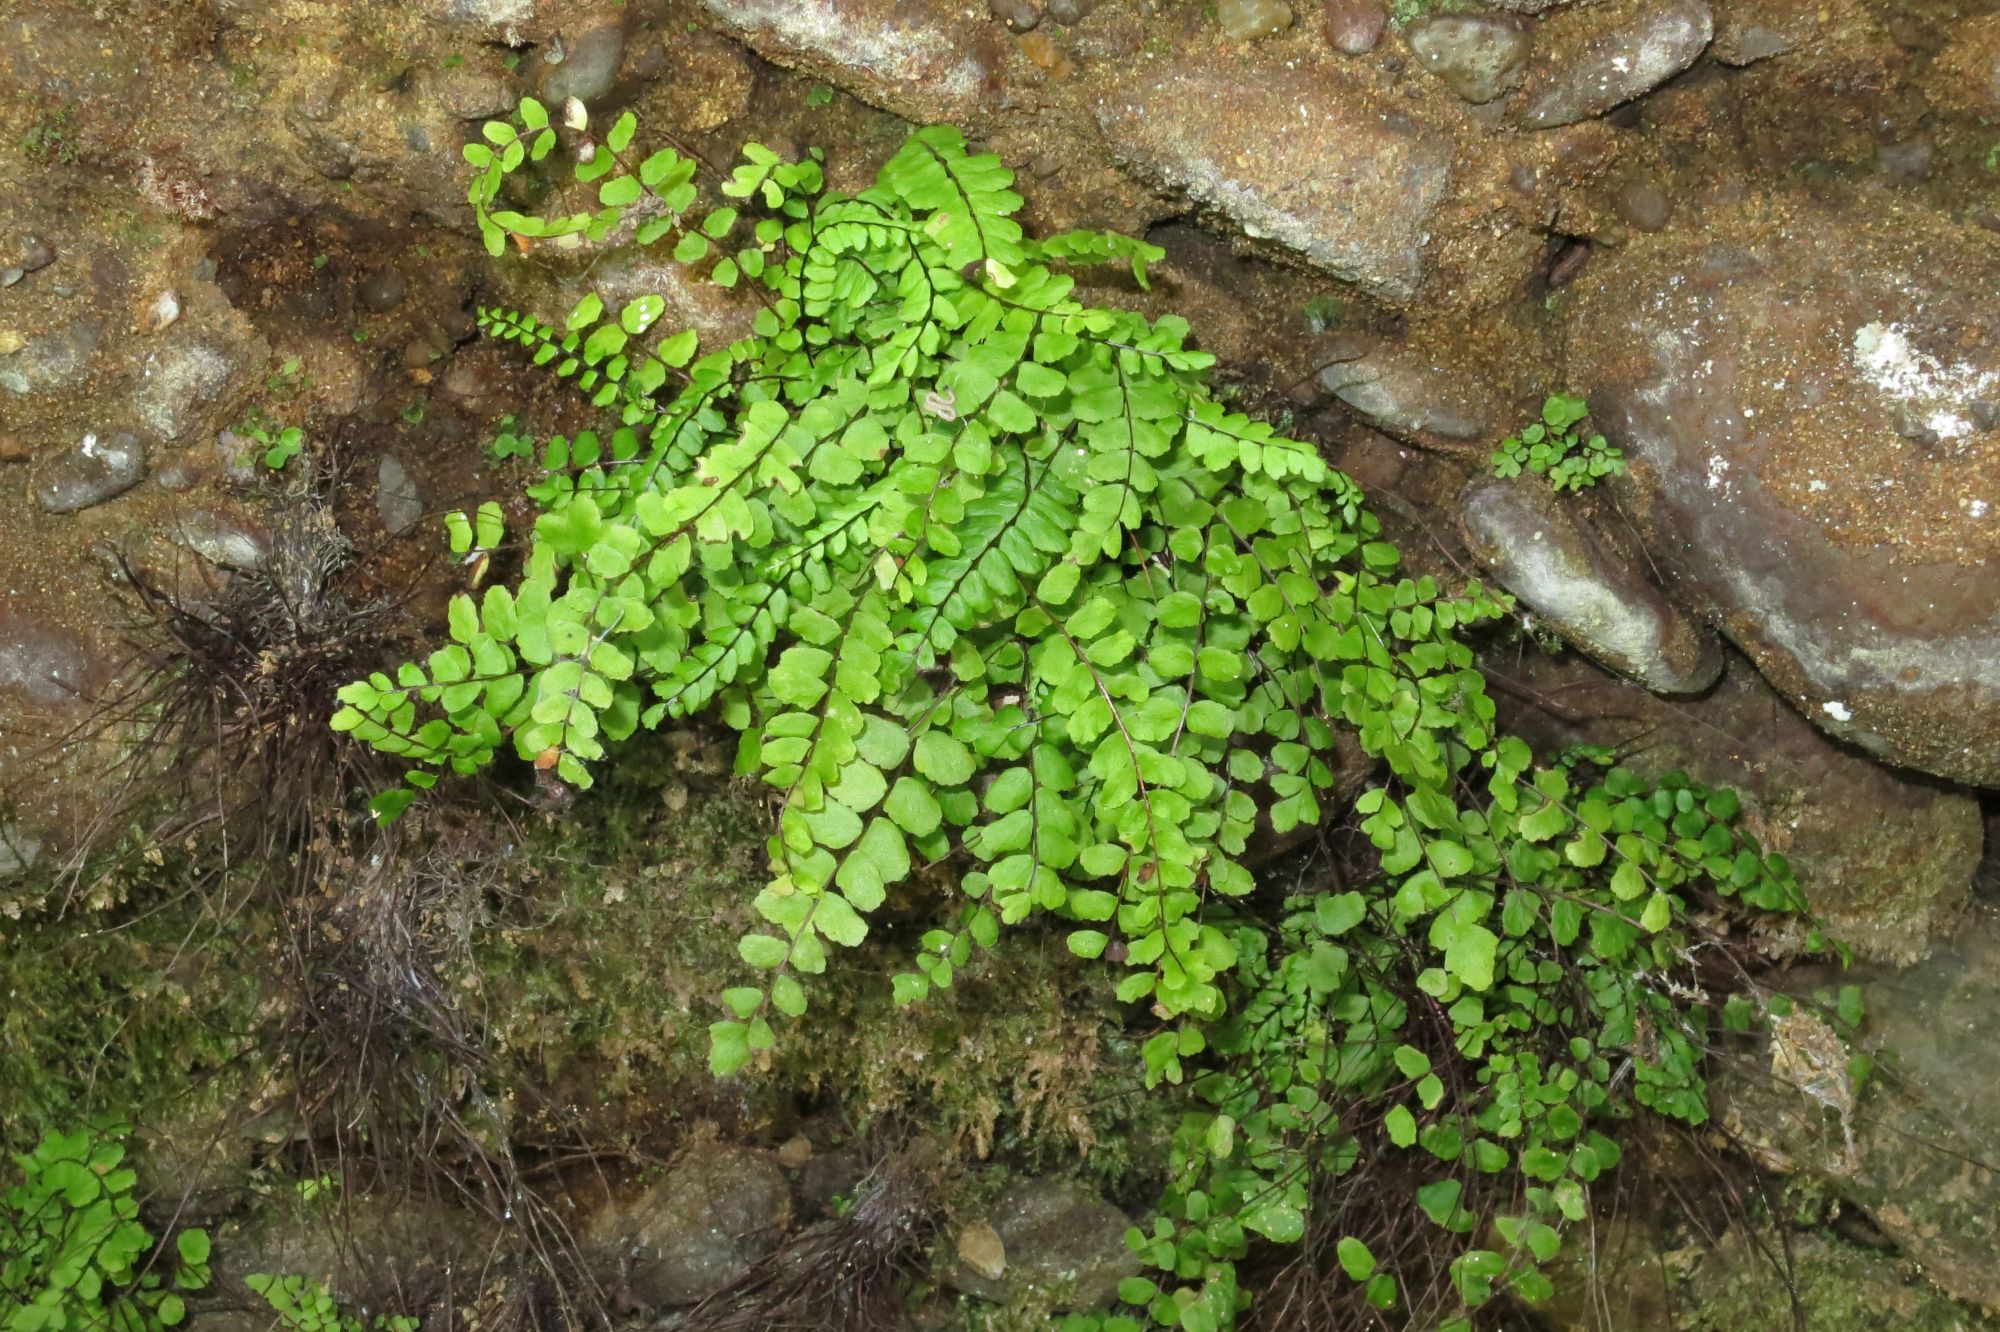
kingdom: Plantae
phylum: Tracheophyta
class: Polypodiopsida
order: Polypodiales
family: Aspleniaceae
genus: Asplenium
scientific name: Asplenium quadrivalens
